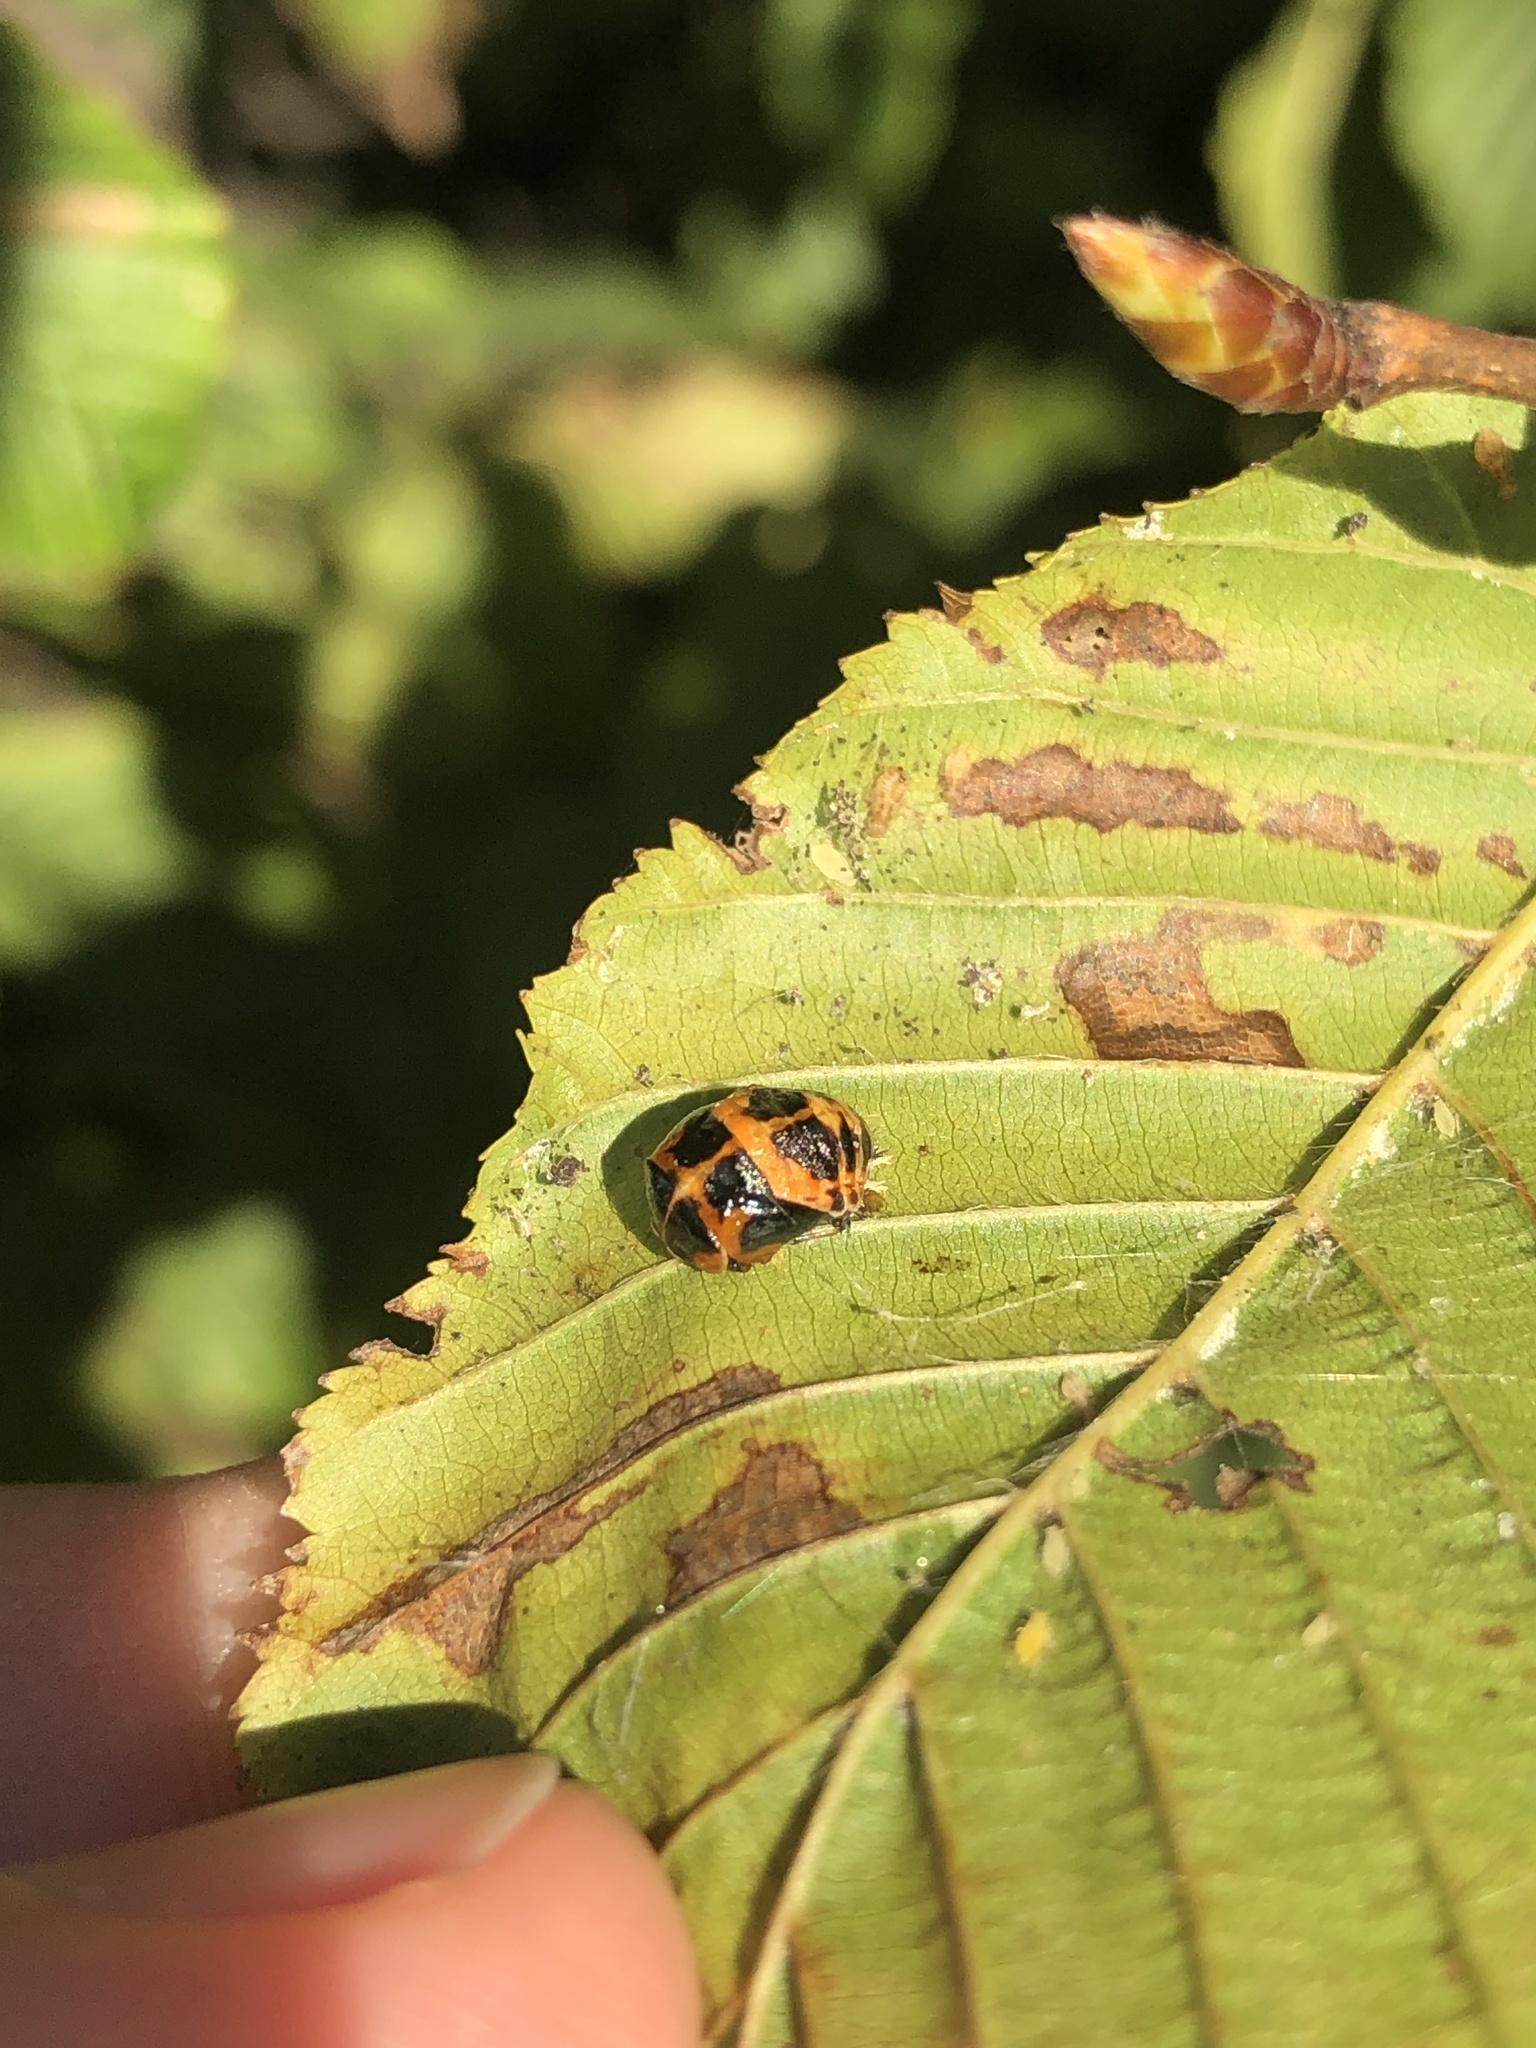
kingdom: Animalia
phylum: Arthropoda
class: Insecta
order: Coleoptera
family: Coccinellidae
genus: Harmonia
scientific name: Harmonia axyridis
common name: Harlequin ladybird
